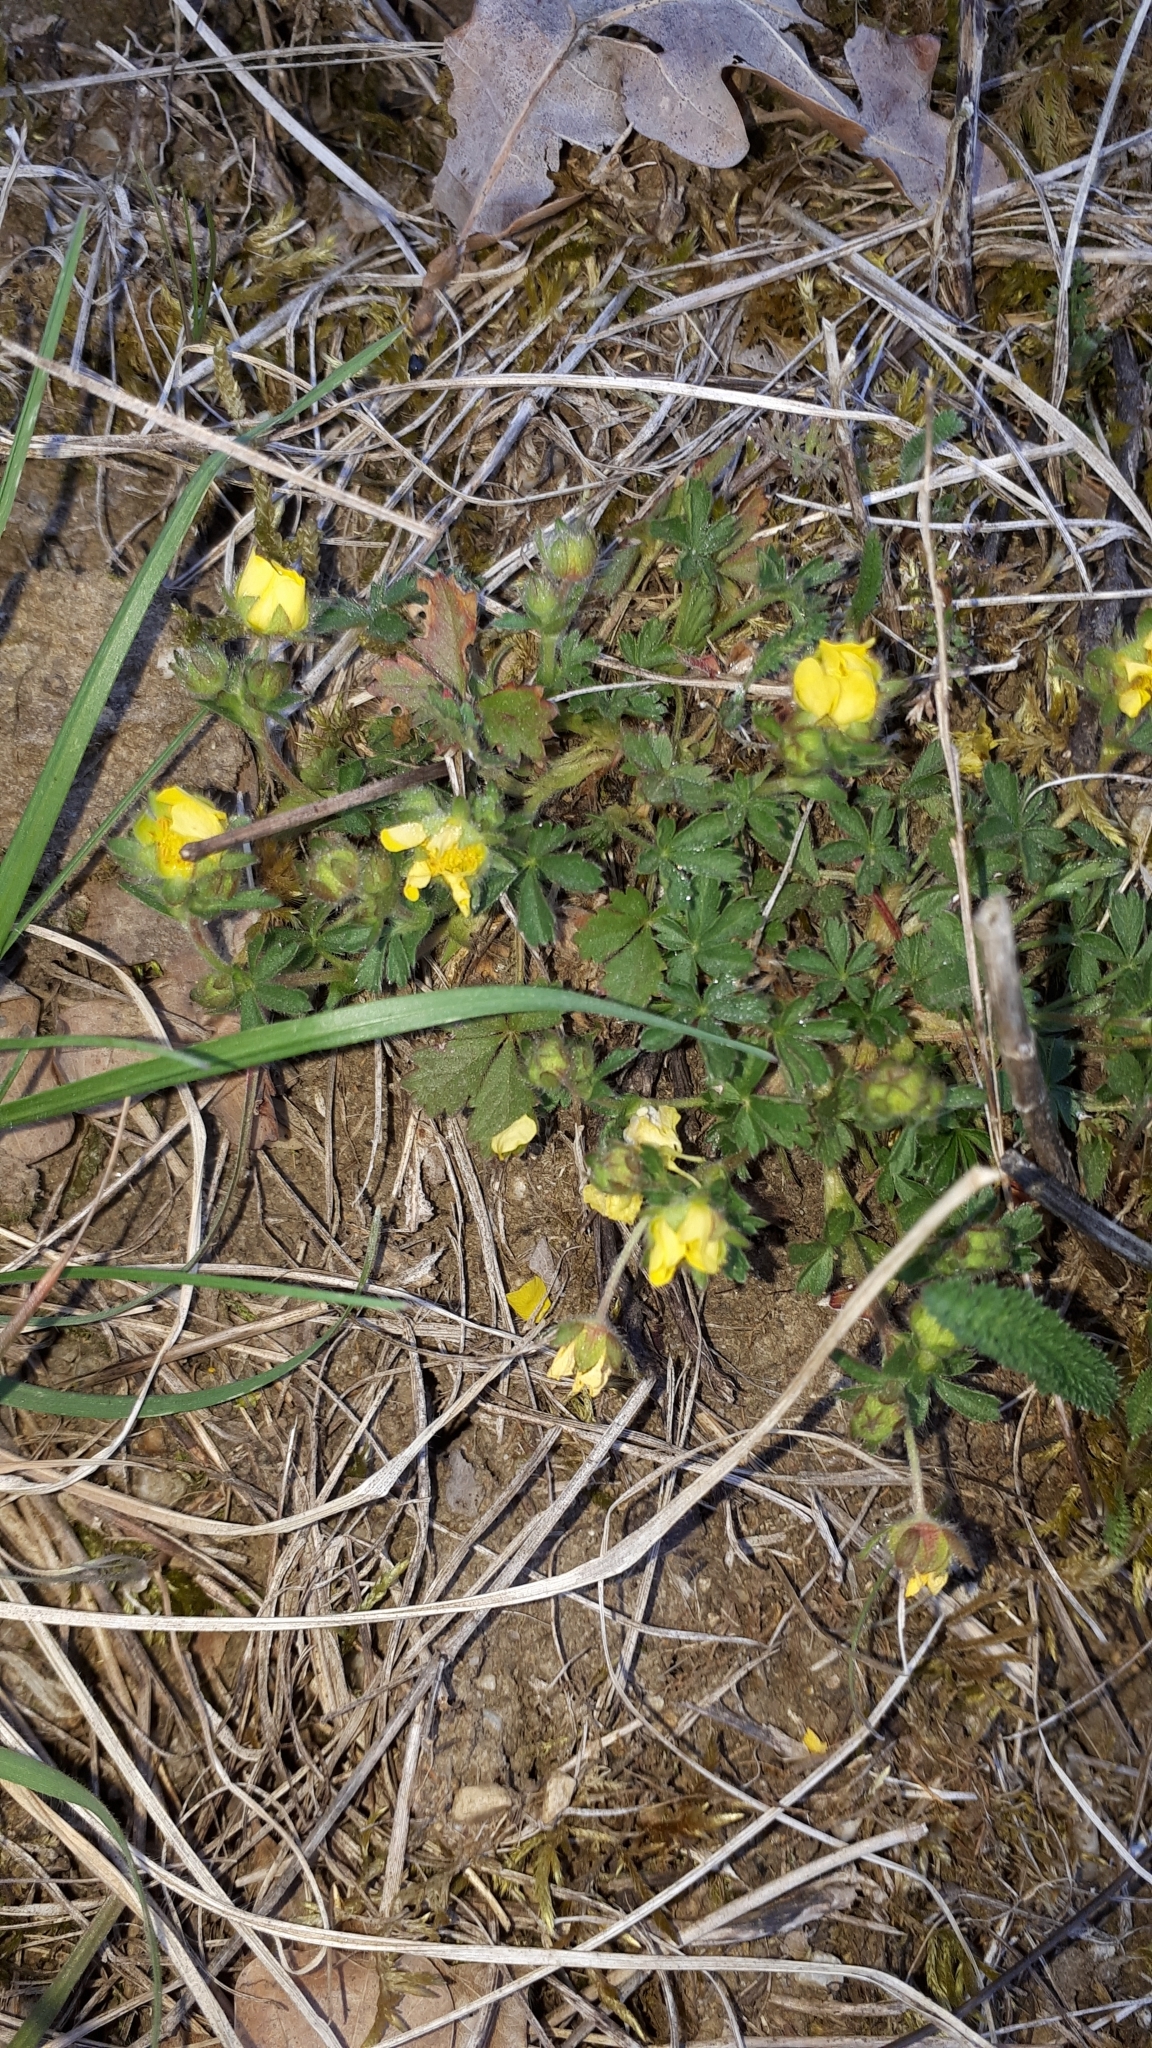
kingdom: Plantae
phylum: Tracheophyta
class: Magnoliopsida
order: Rosales
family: Rosaceae
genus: Potentilla
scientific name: Potentilla verna
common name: Spring cinquefoil
